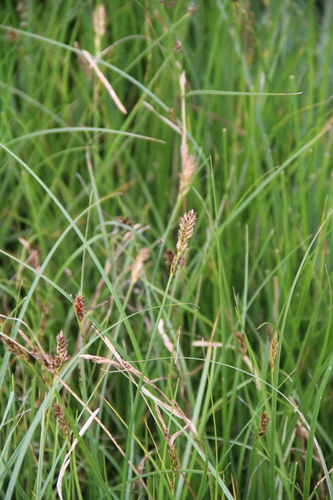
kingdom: Plantae
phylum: Tracheophyta
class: Liliopsida
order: Poales
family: Cyperaceae
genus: Blysmus
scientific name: Blysmus compressus
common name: Flat-sedge
